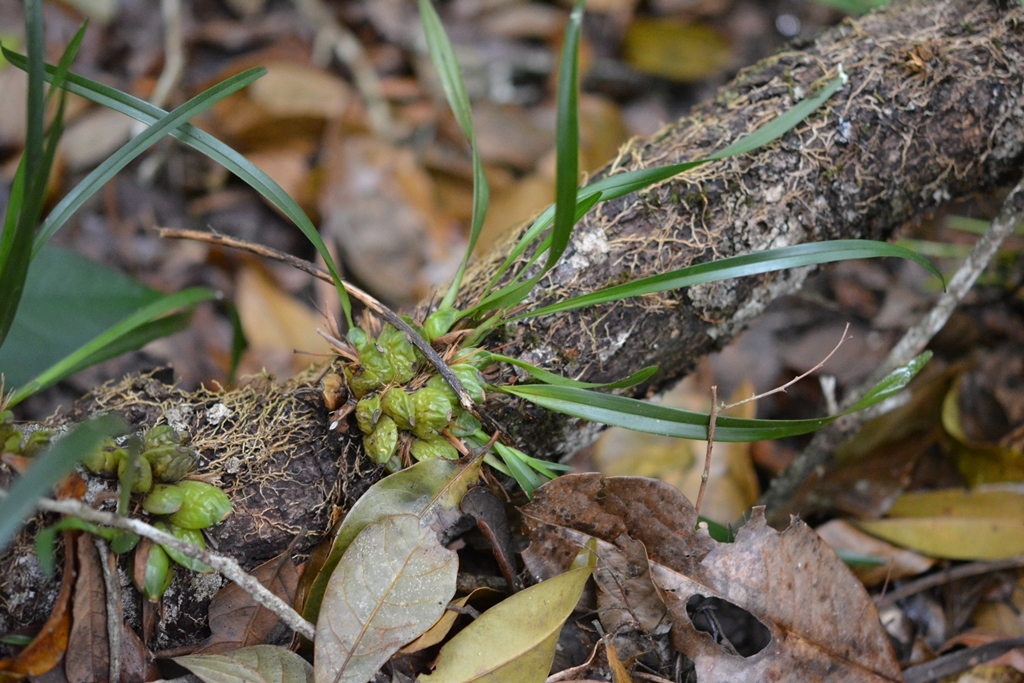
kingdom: Plantae
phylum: Tracheophyta
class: Liliopsida
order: Asparagales
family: Orchidaceae
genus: Maxillaria
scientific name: Maxillaria meleagris
